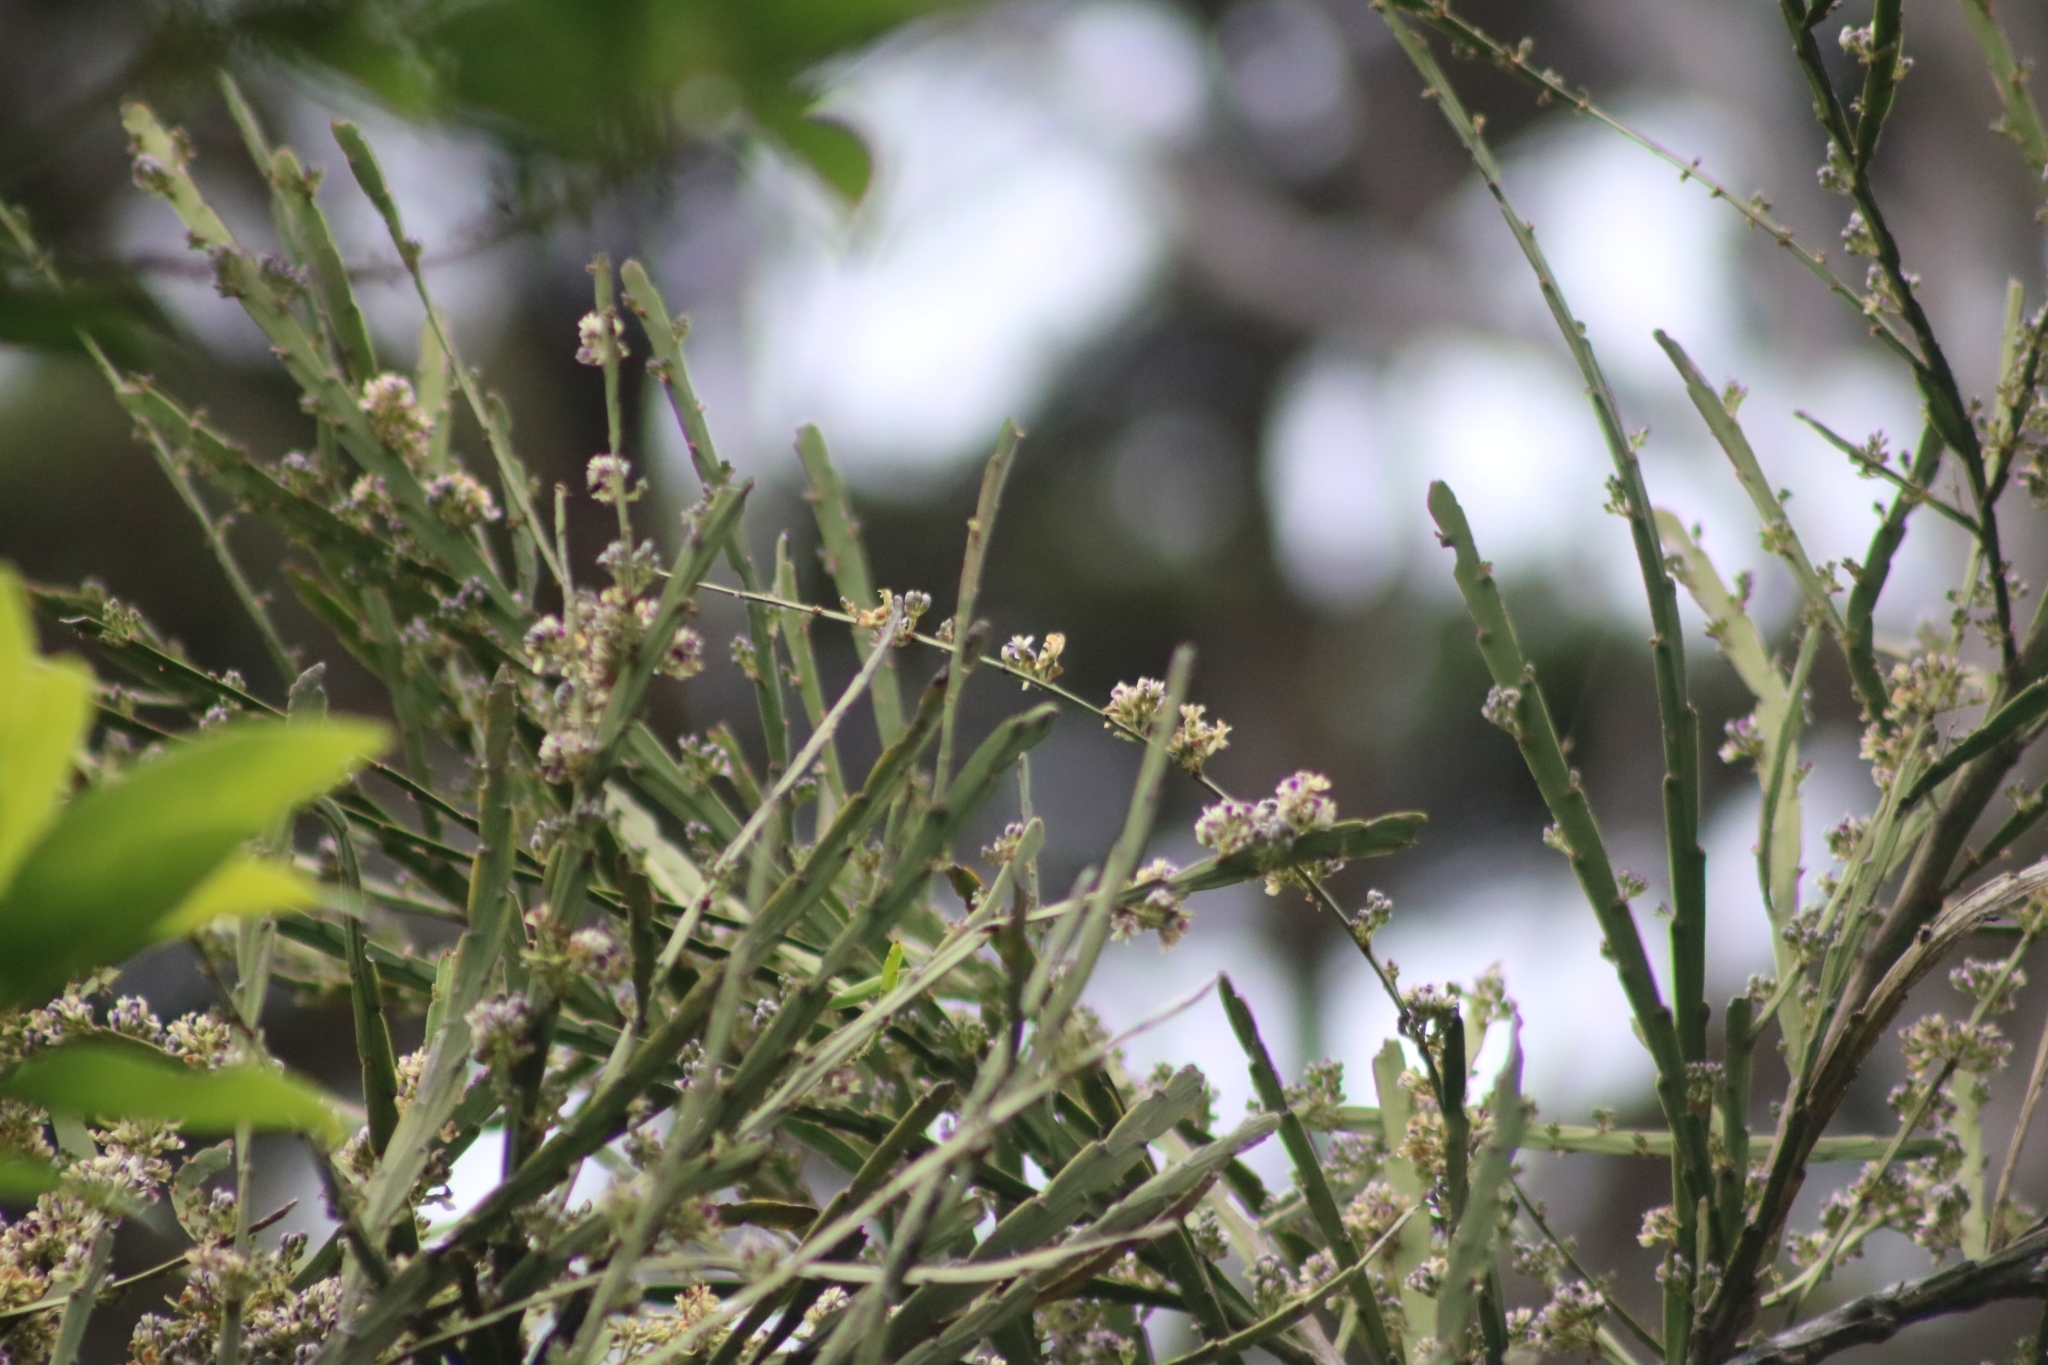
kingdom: Plantae
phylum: Tracheophyta
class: Magnoliopsida
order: Fabales
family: Fabaceae
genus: Carmichaelia
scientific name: Carmichaelia australis
